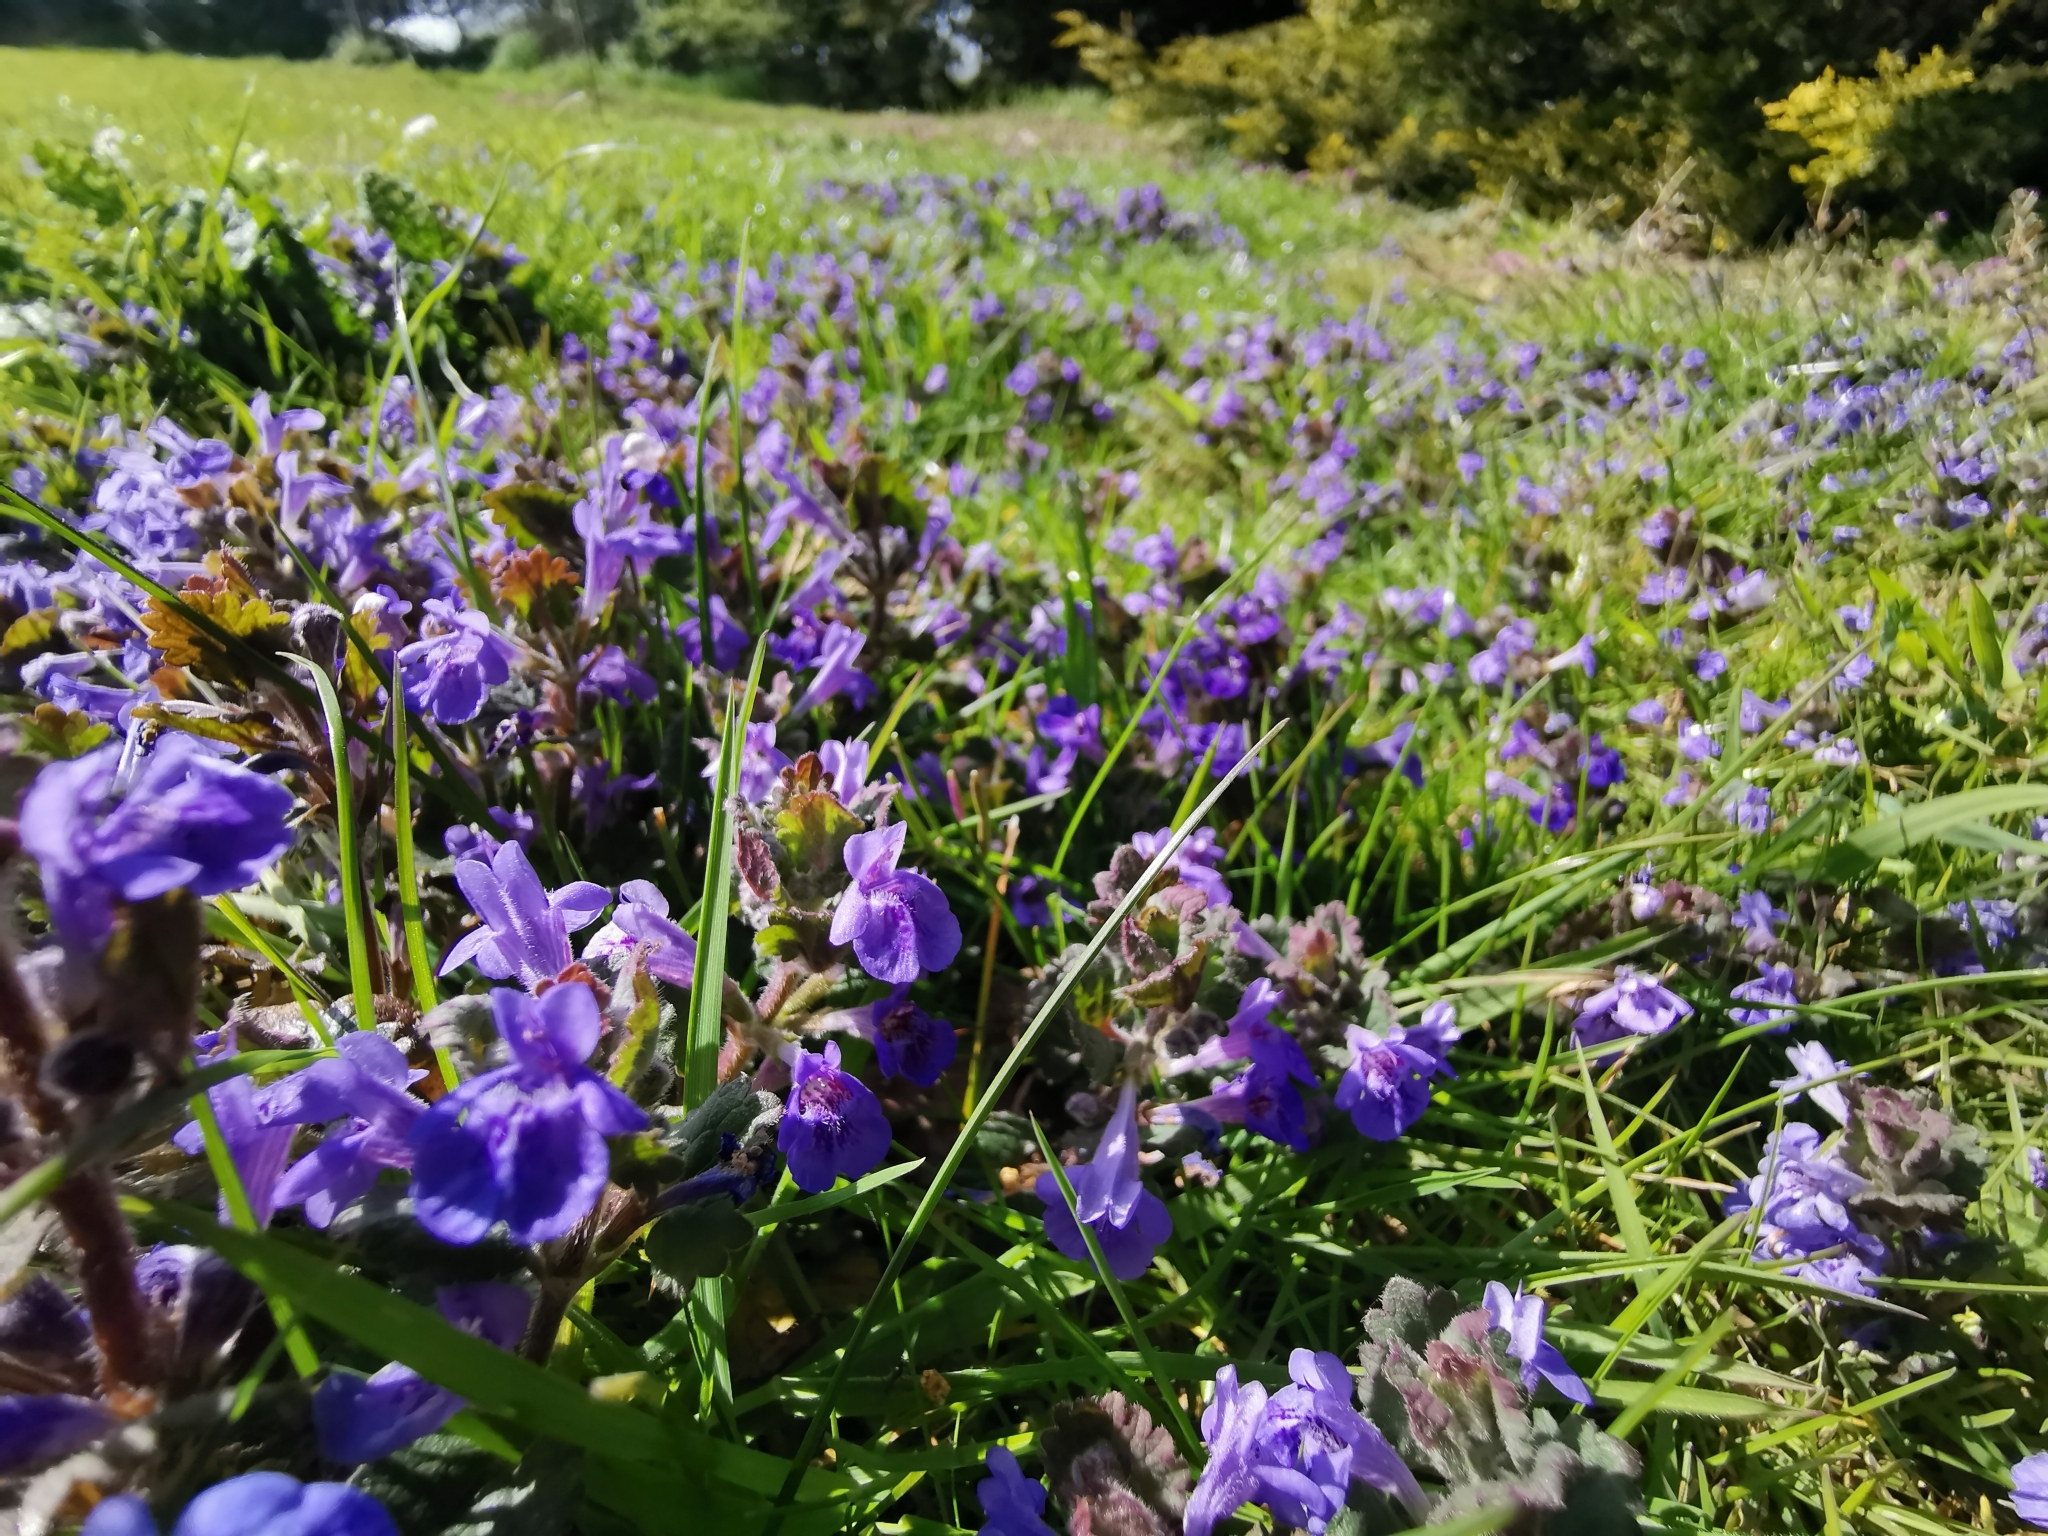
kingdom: Plantae
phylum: Tracheophyta
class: Magnoliopsida
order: Lamiales
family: Lamiaceae
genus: Glechoma
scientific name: Glechoma hederacea
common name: Ground ivy
